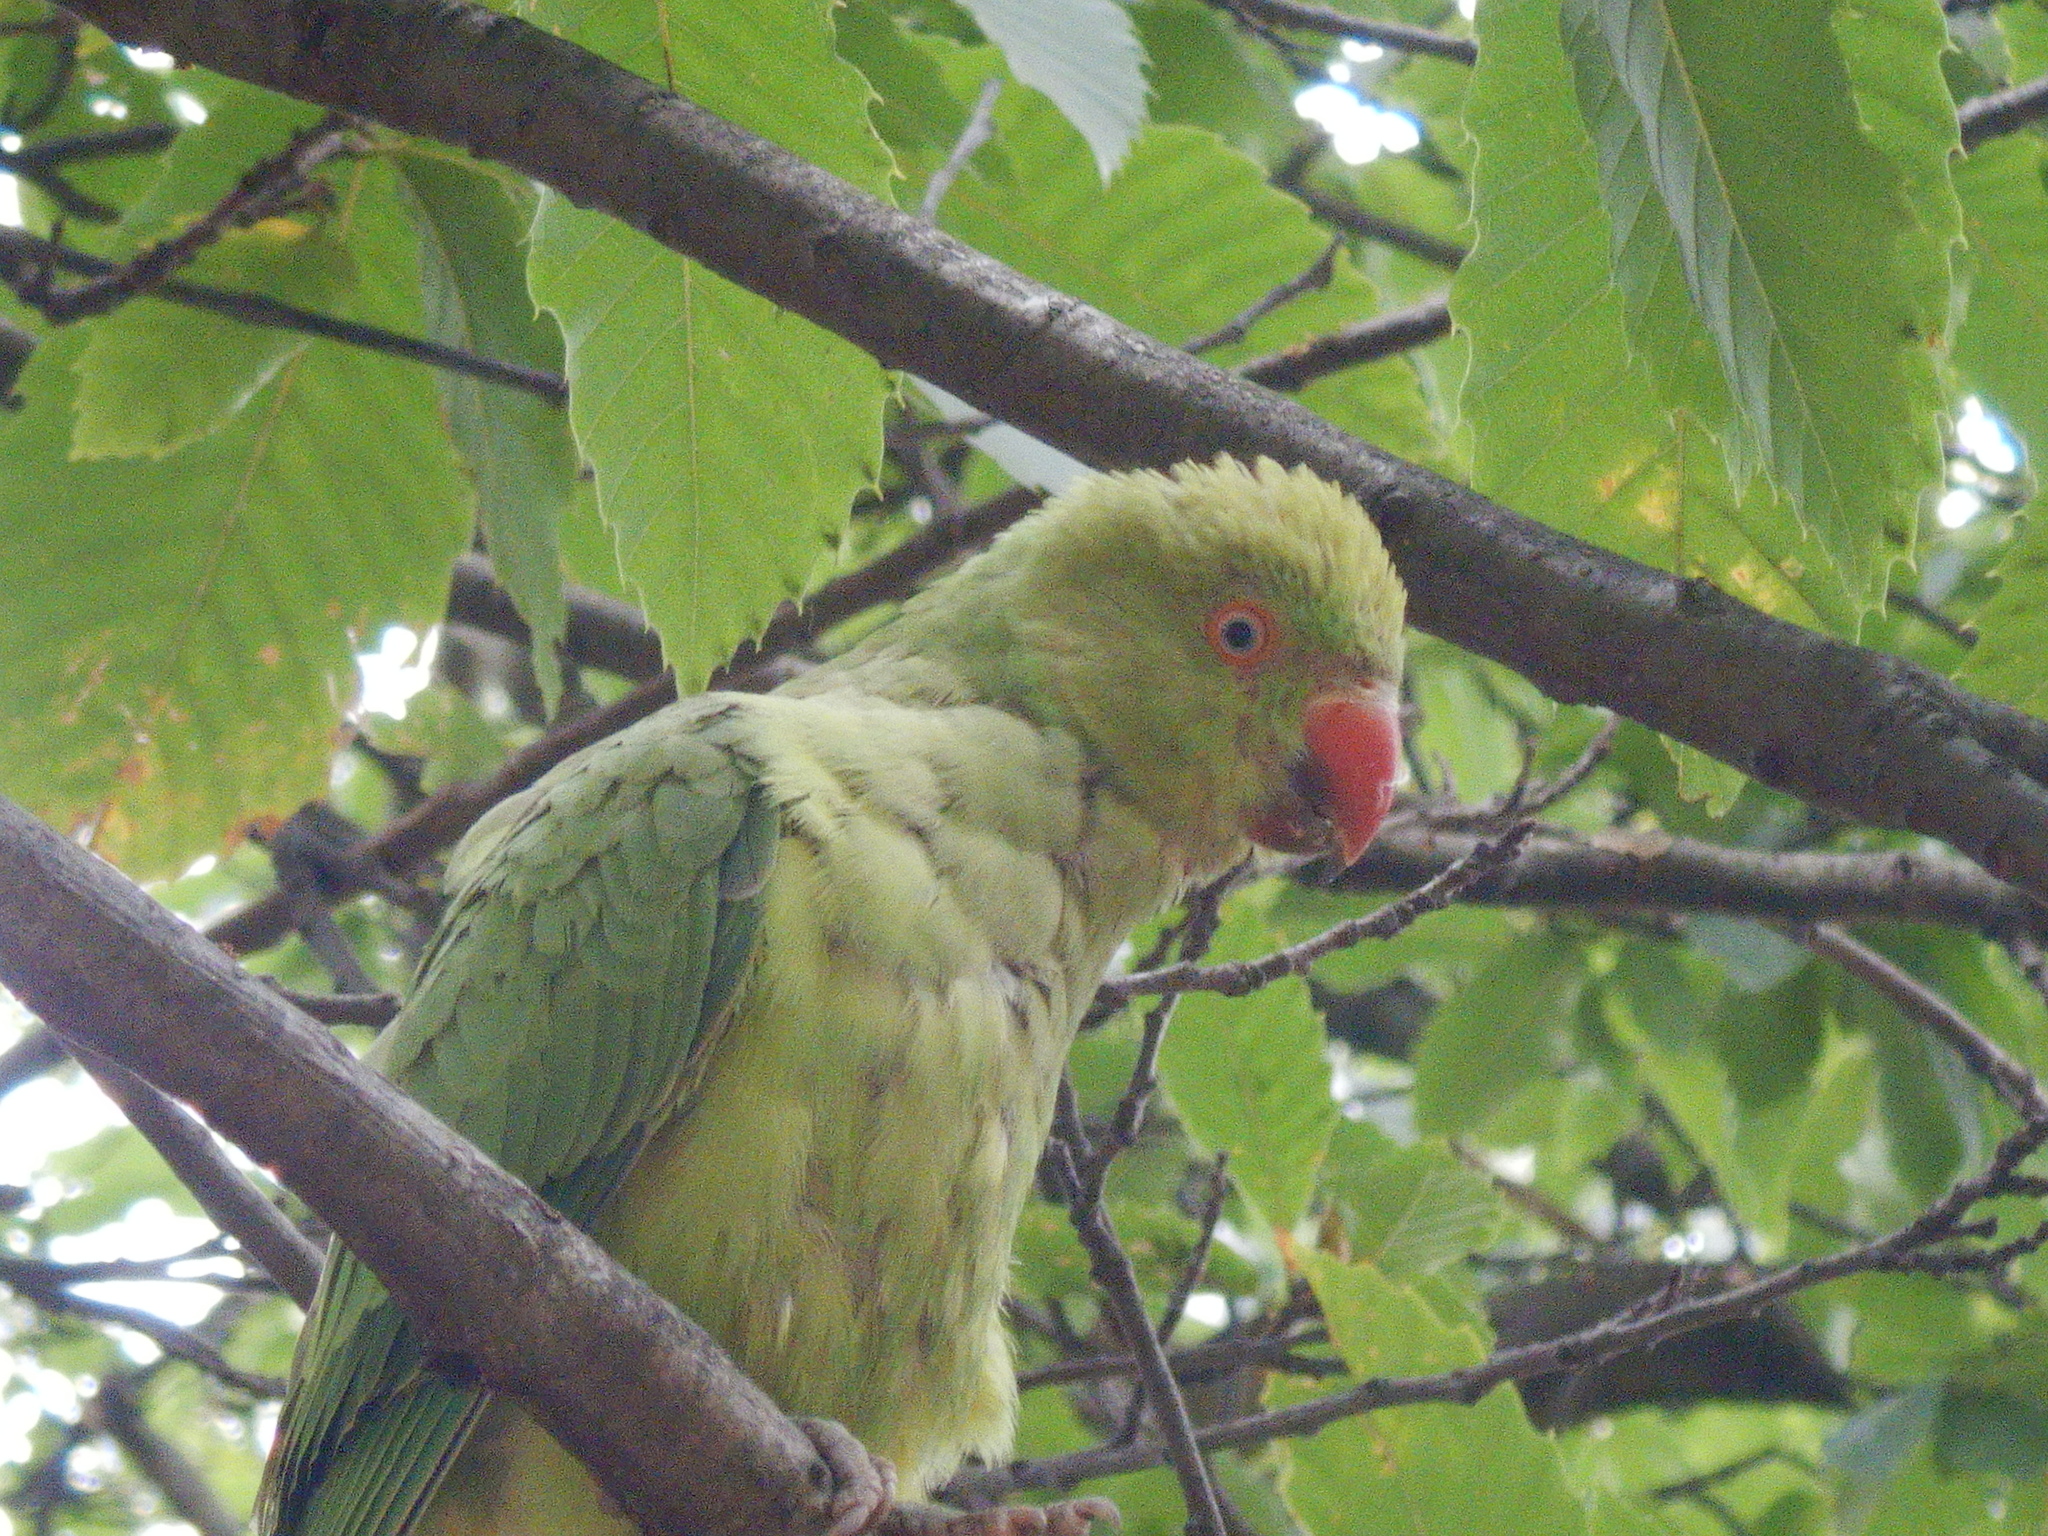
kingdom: Animalia
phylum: Chordata
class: Aves
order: Psittaciformes
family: Psittacidae
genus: Psittacula
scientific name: Psittacula krameri
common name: Rose-ringed parakeet
